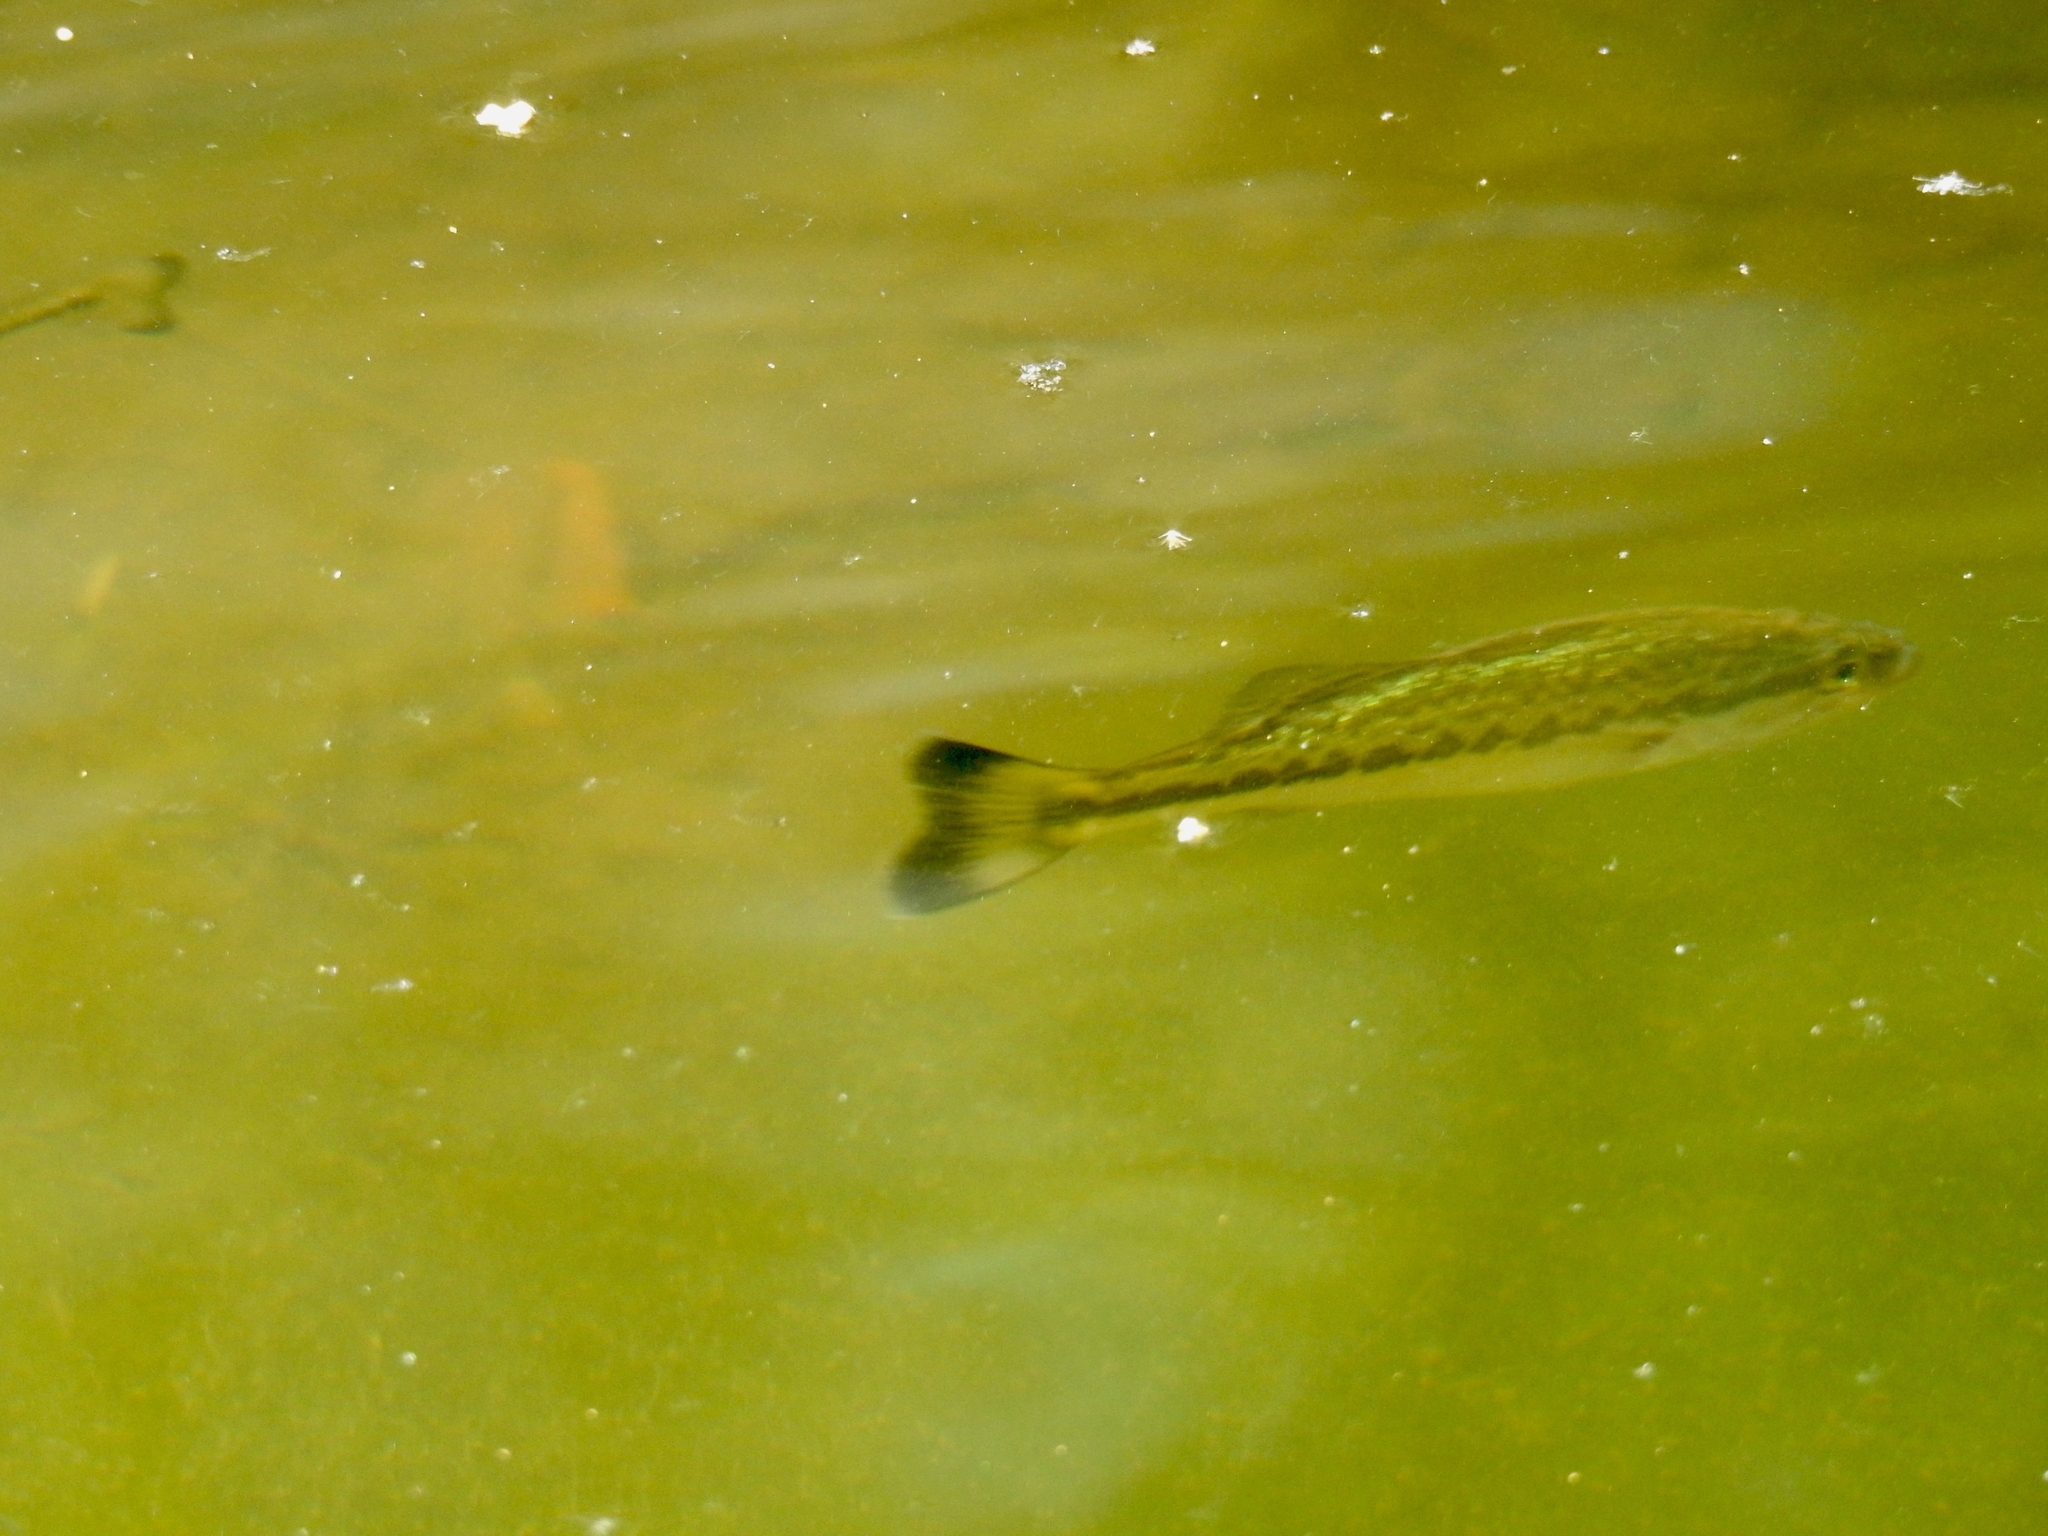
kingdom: Animalia
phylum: Chordata
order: Perciformes
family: Centrarchidae
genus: Micropterus
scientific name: Micropterus
